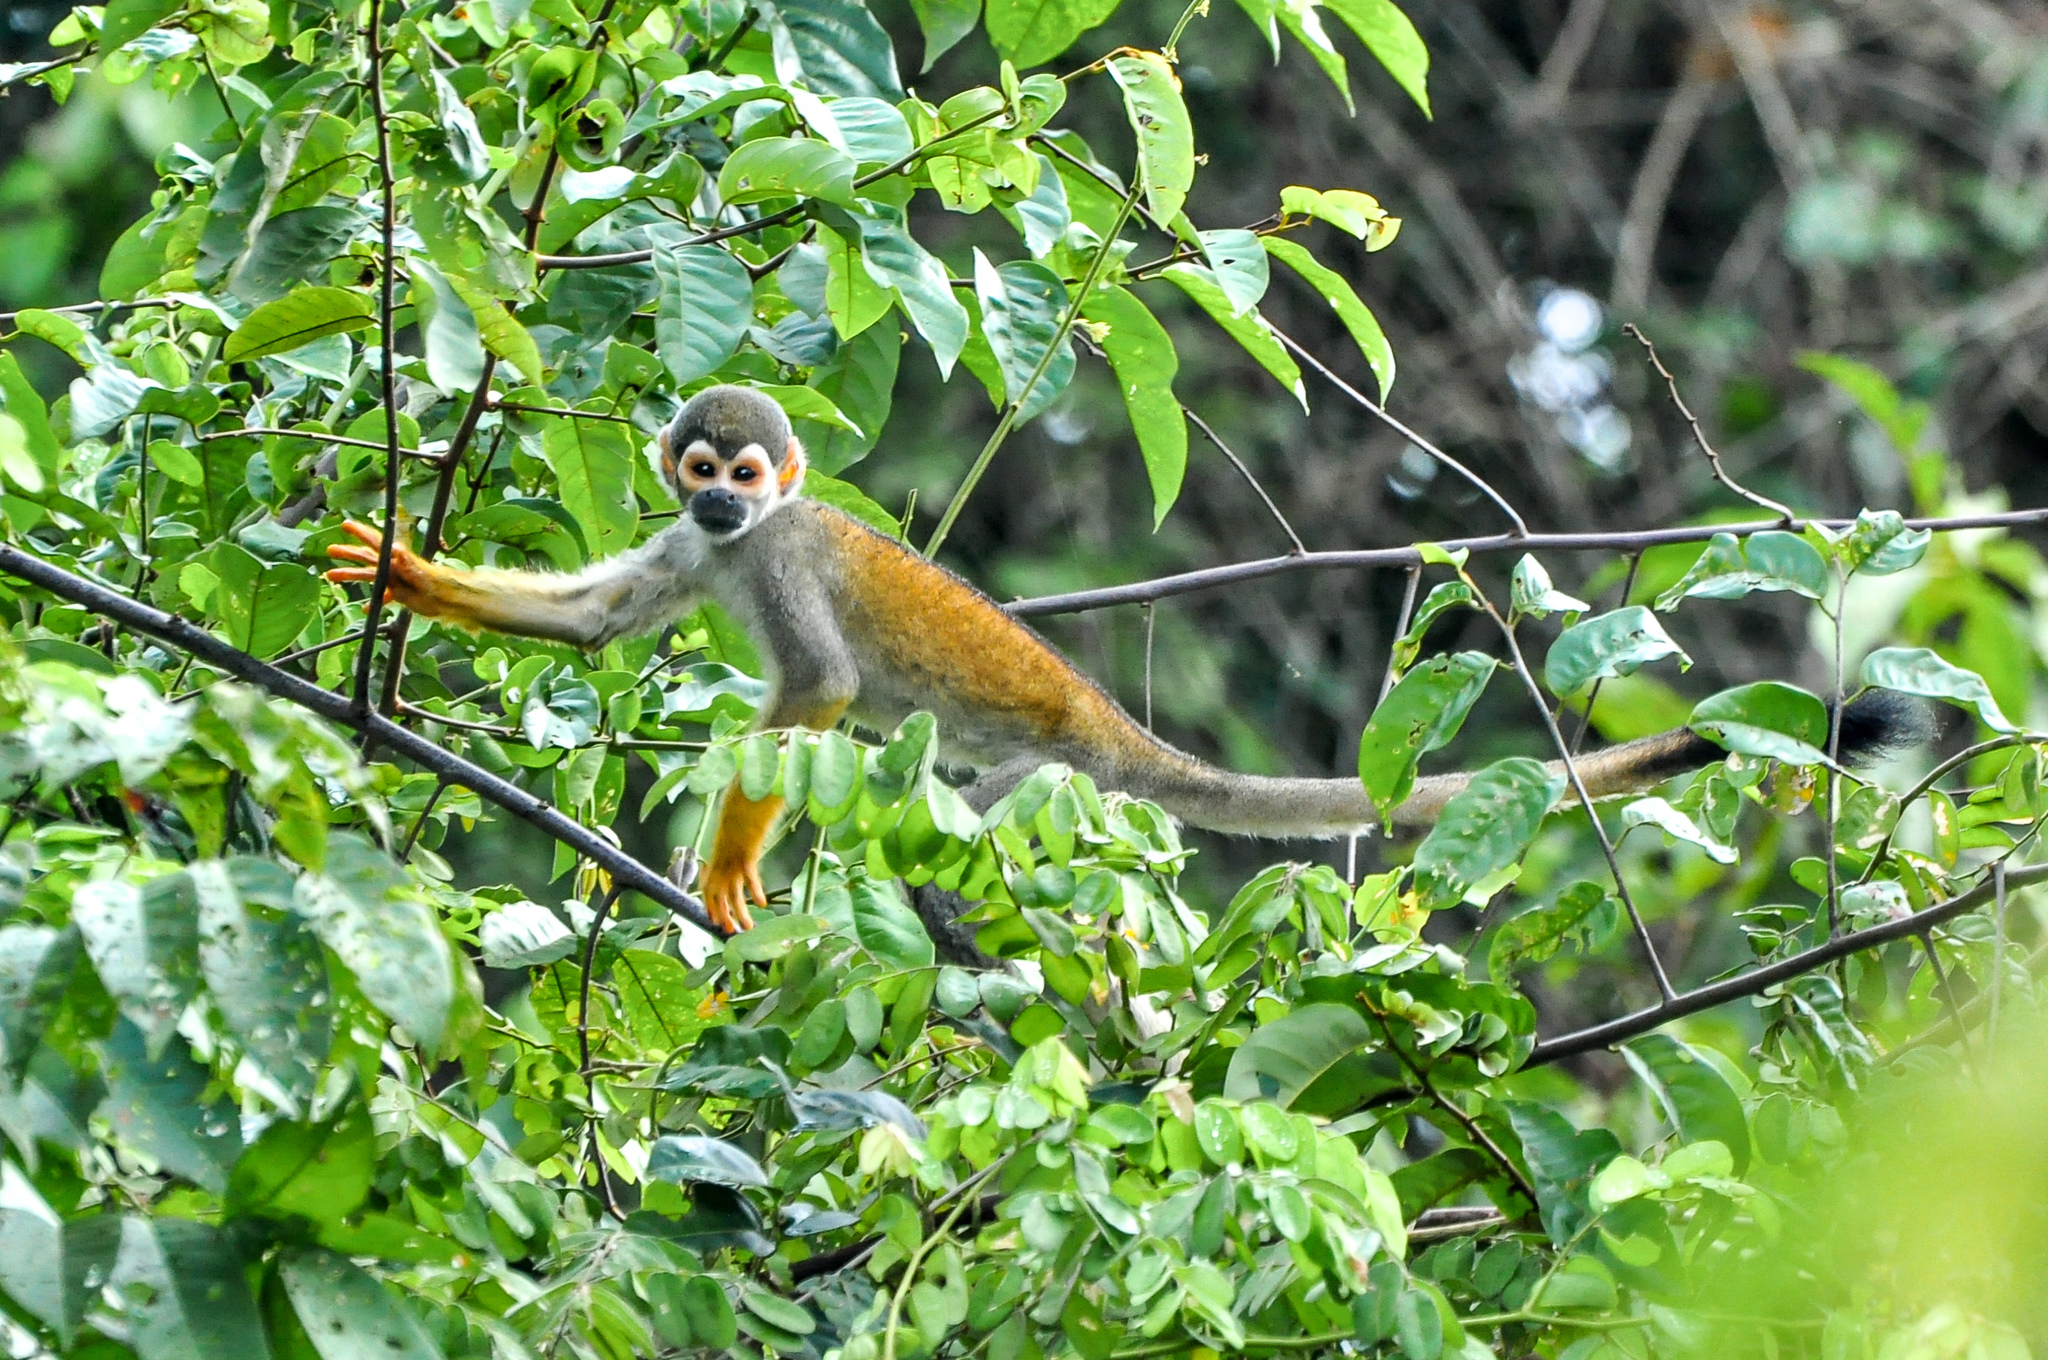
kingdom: Animalia
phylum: Chordata
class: Mammalia
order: Primates
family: Cebidae
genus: Saimiri
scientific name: Saimiri ustus
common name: Bare-eared squirrel monkey
